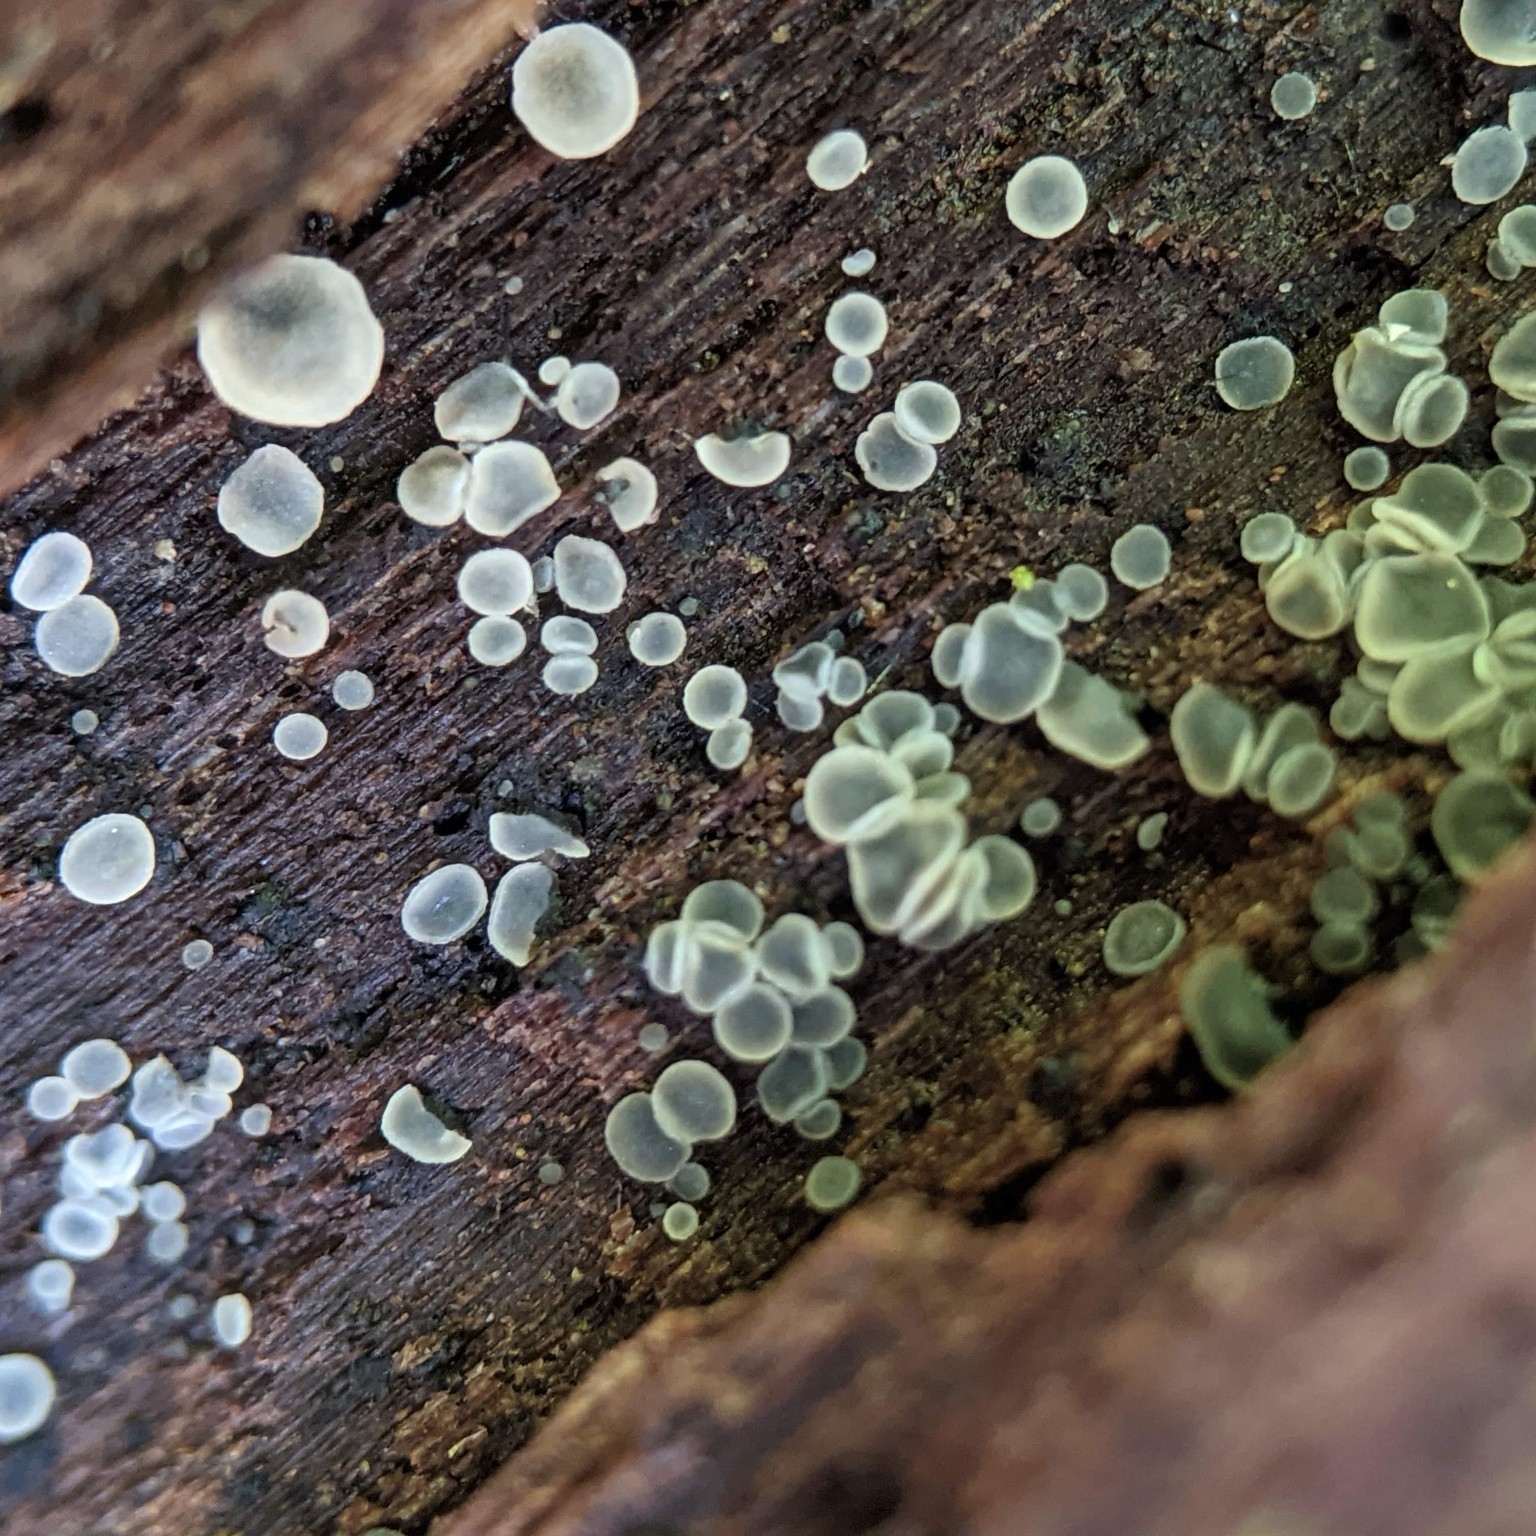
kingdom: Fungi
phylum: Ascomycota
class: Leotiomycetes
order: Helotiales
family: Mollisiaceae
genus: Mollisia
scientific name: Mollisia cinerea
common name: Common grey disco
